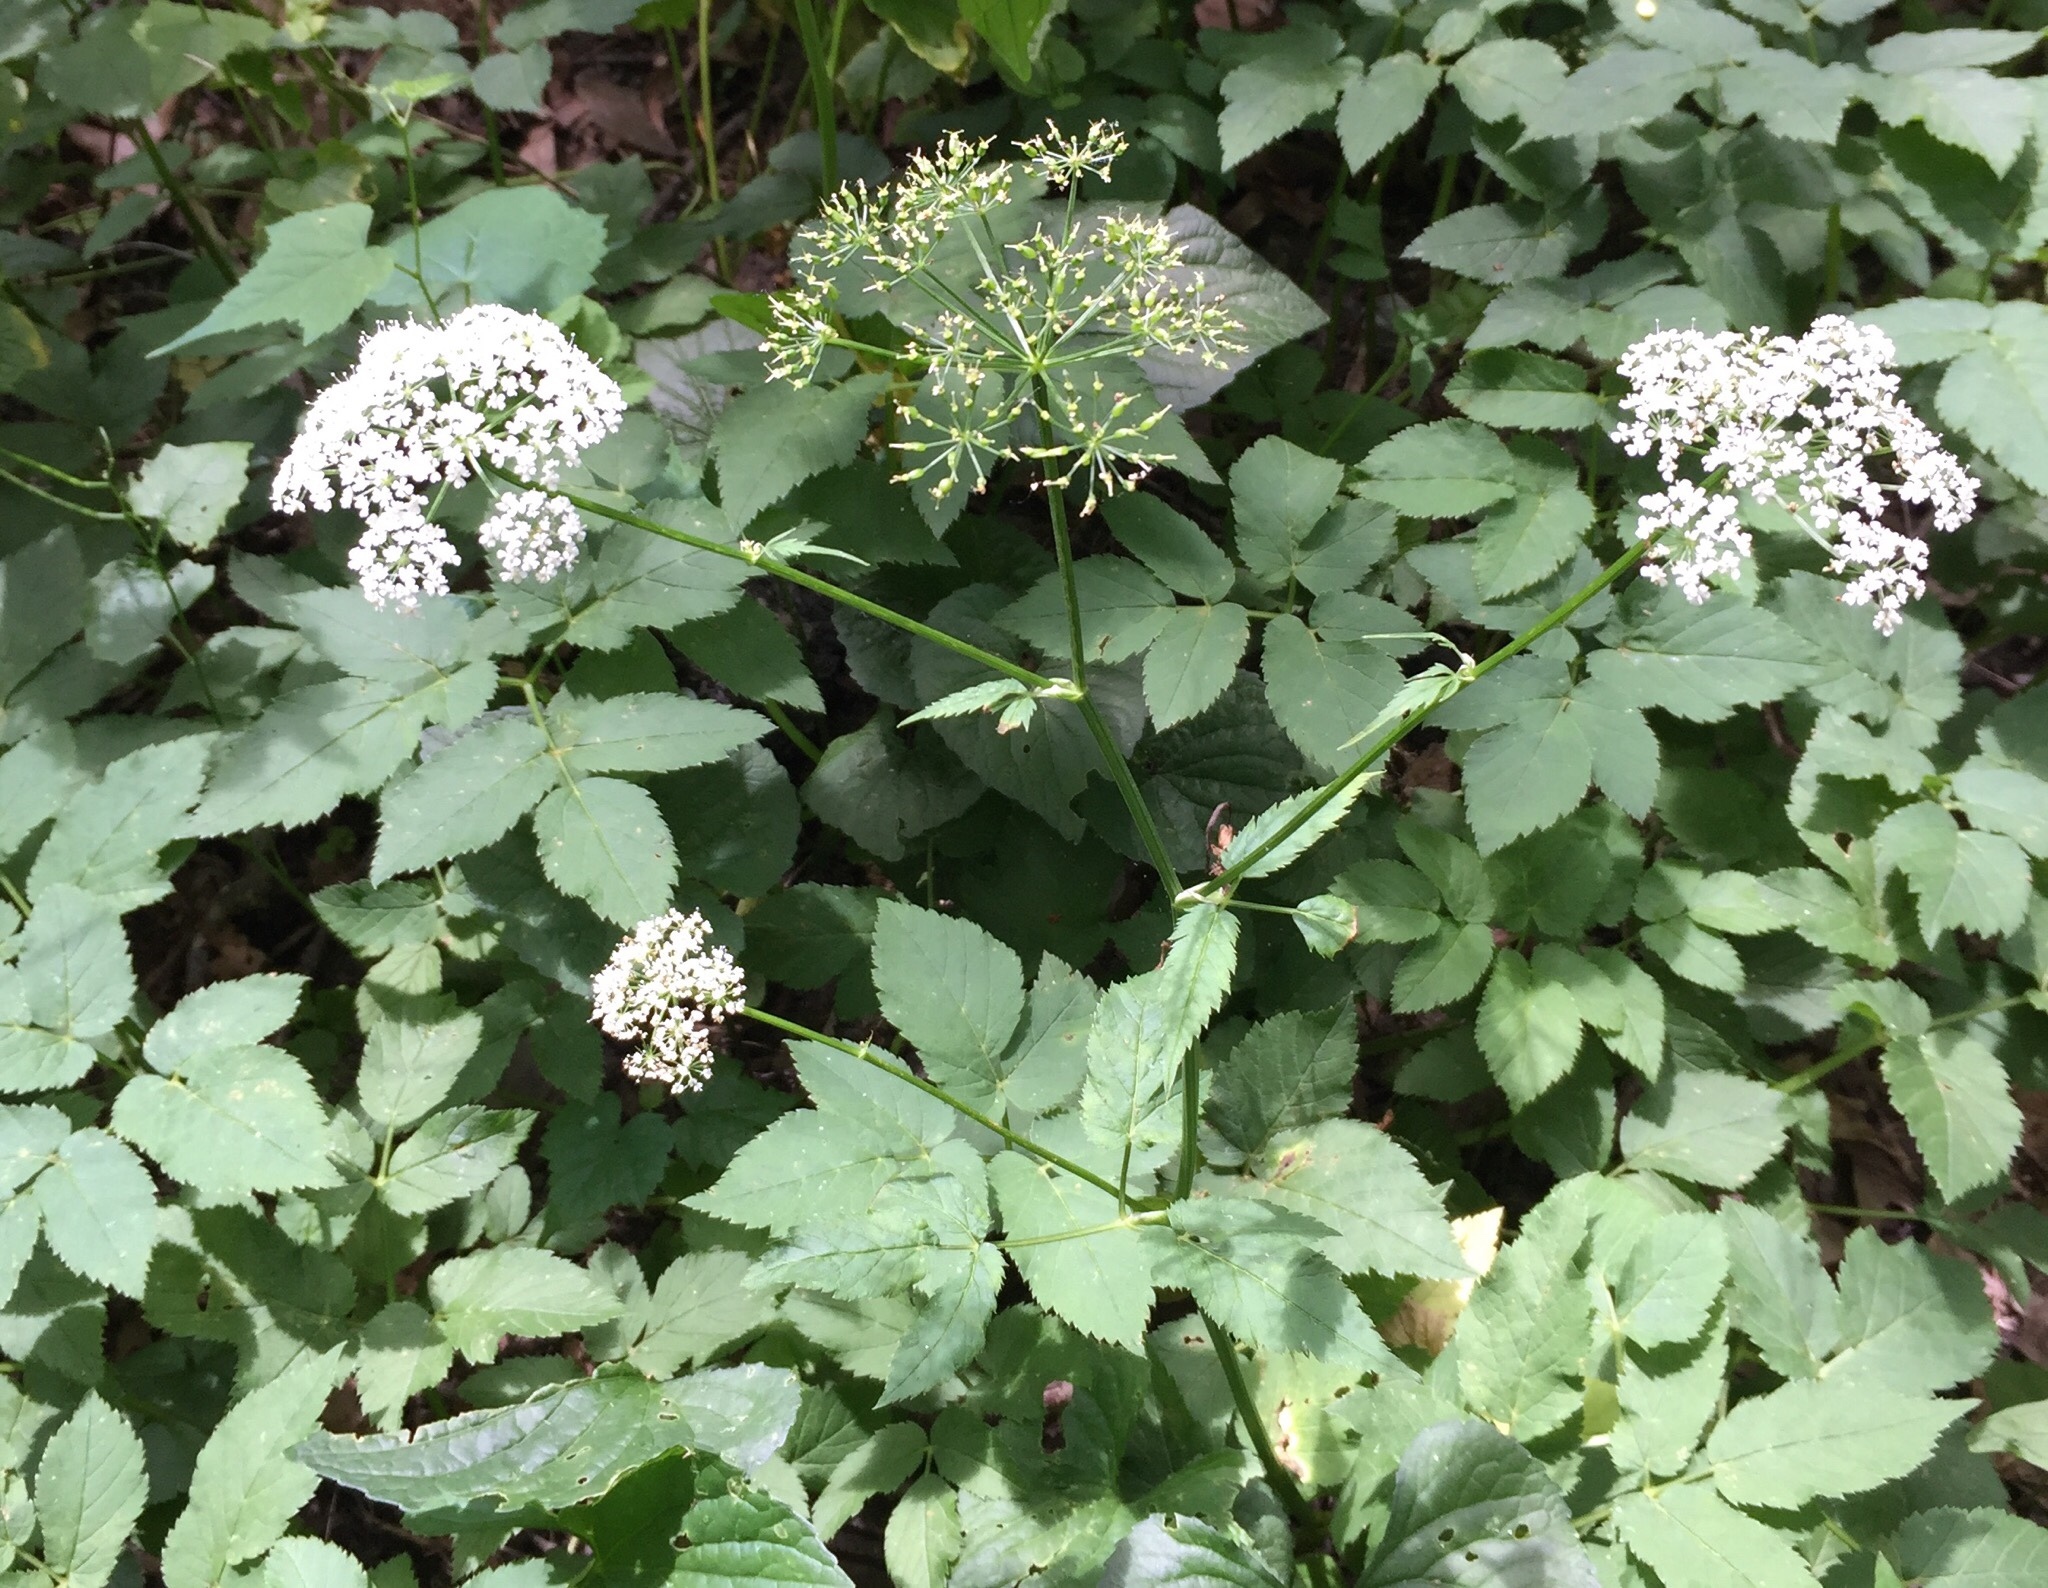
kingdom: Plantae
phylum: Tracheophyta
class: Magnoliopsida
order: Apiales
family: Apiaceae
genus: Aegopodium
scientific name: Aegopodium podagraria
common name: Ground-elder
